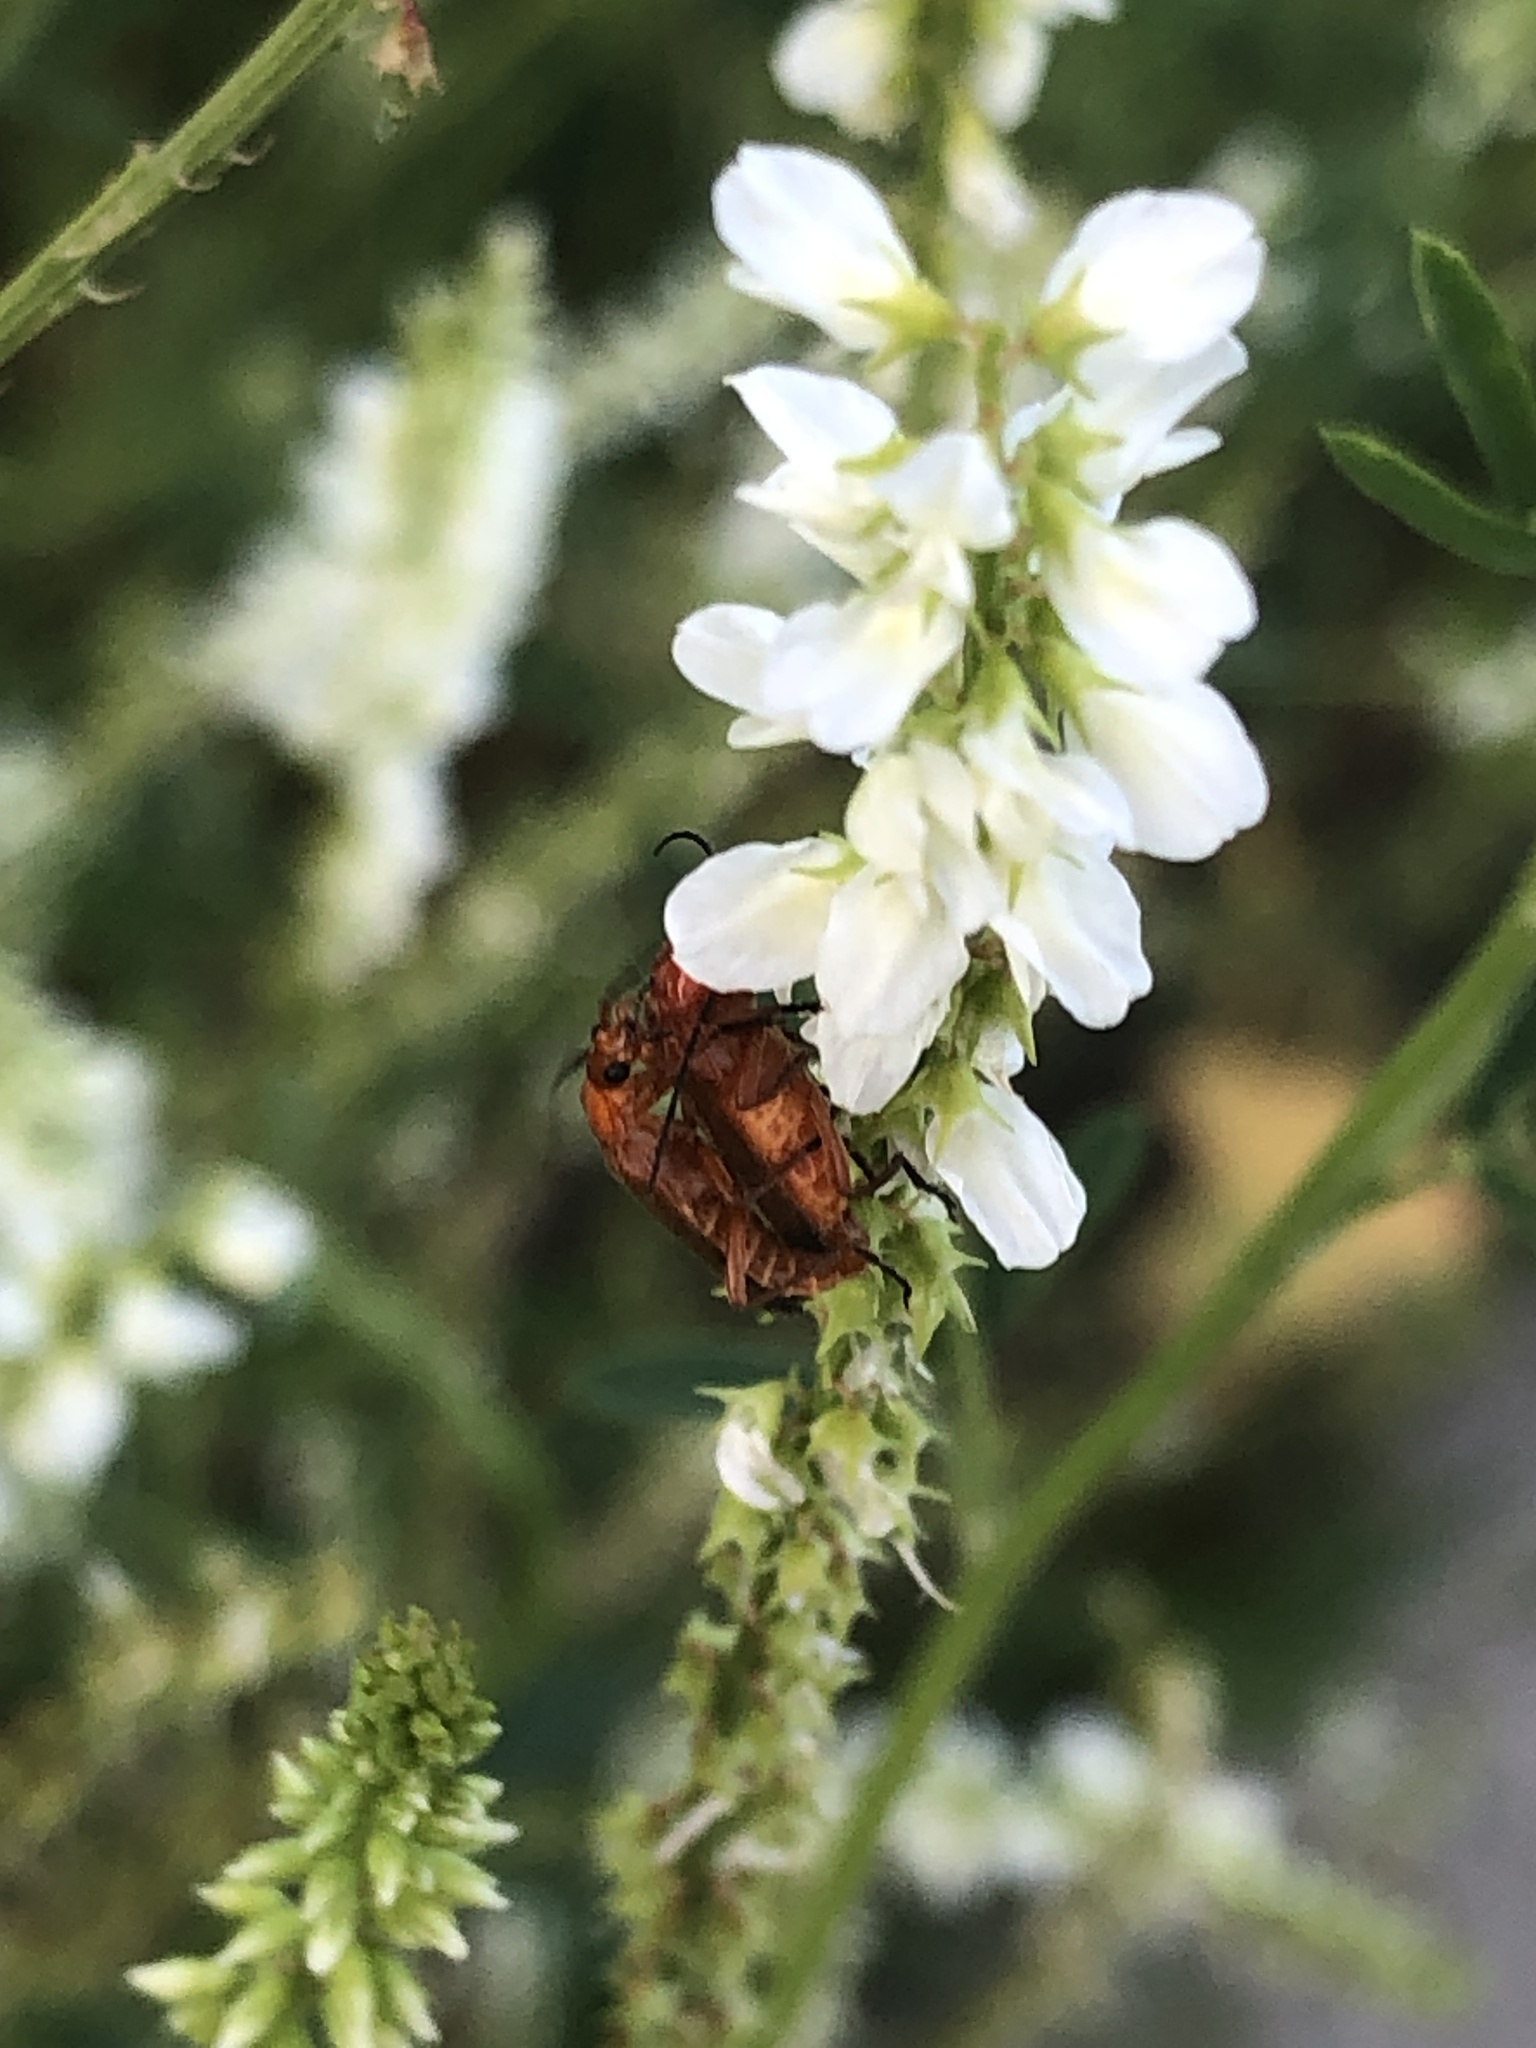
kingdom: Animalia
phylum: Arthropoda
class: Insecta
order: Coleoptera
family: Cantharidae
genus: Rhagonycha
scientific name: Rhagonycha fulva
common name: Common red soldier beetle
